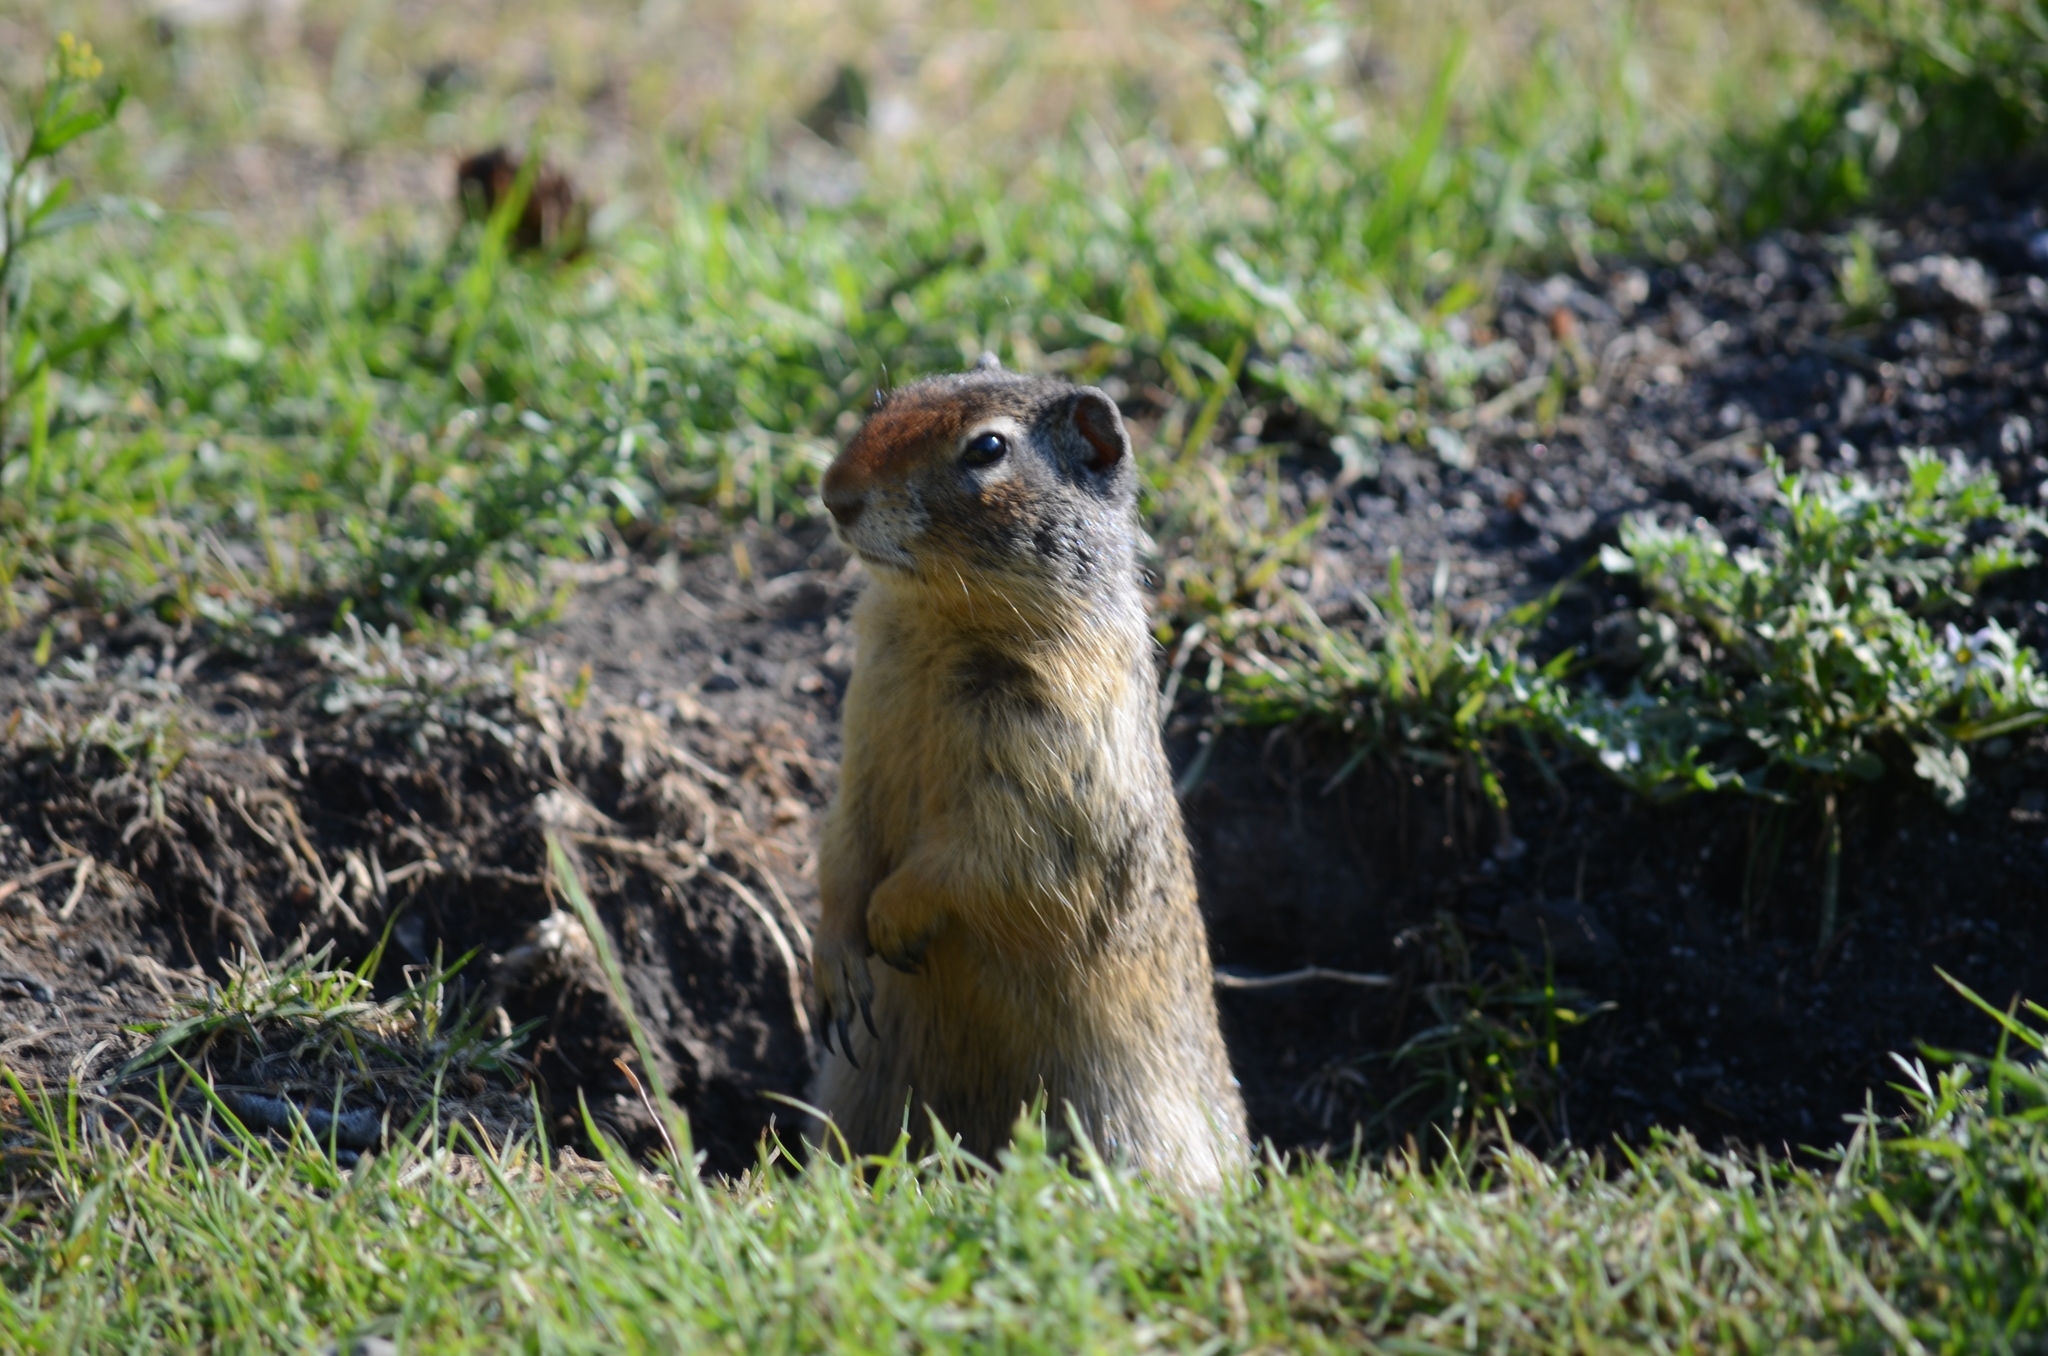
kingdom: Animalia
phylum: Chordata
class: Mammalia
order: Rodentia
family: Sciuridae
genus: Urocitellus
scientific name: Urocitellus columbianus
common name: Columbian ground squirrel
